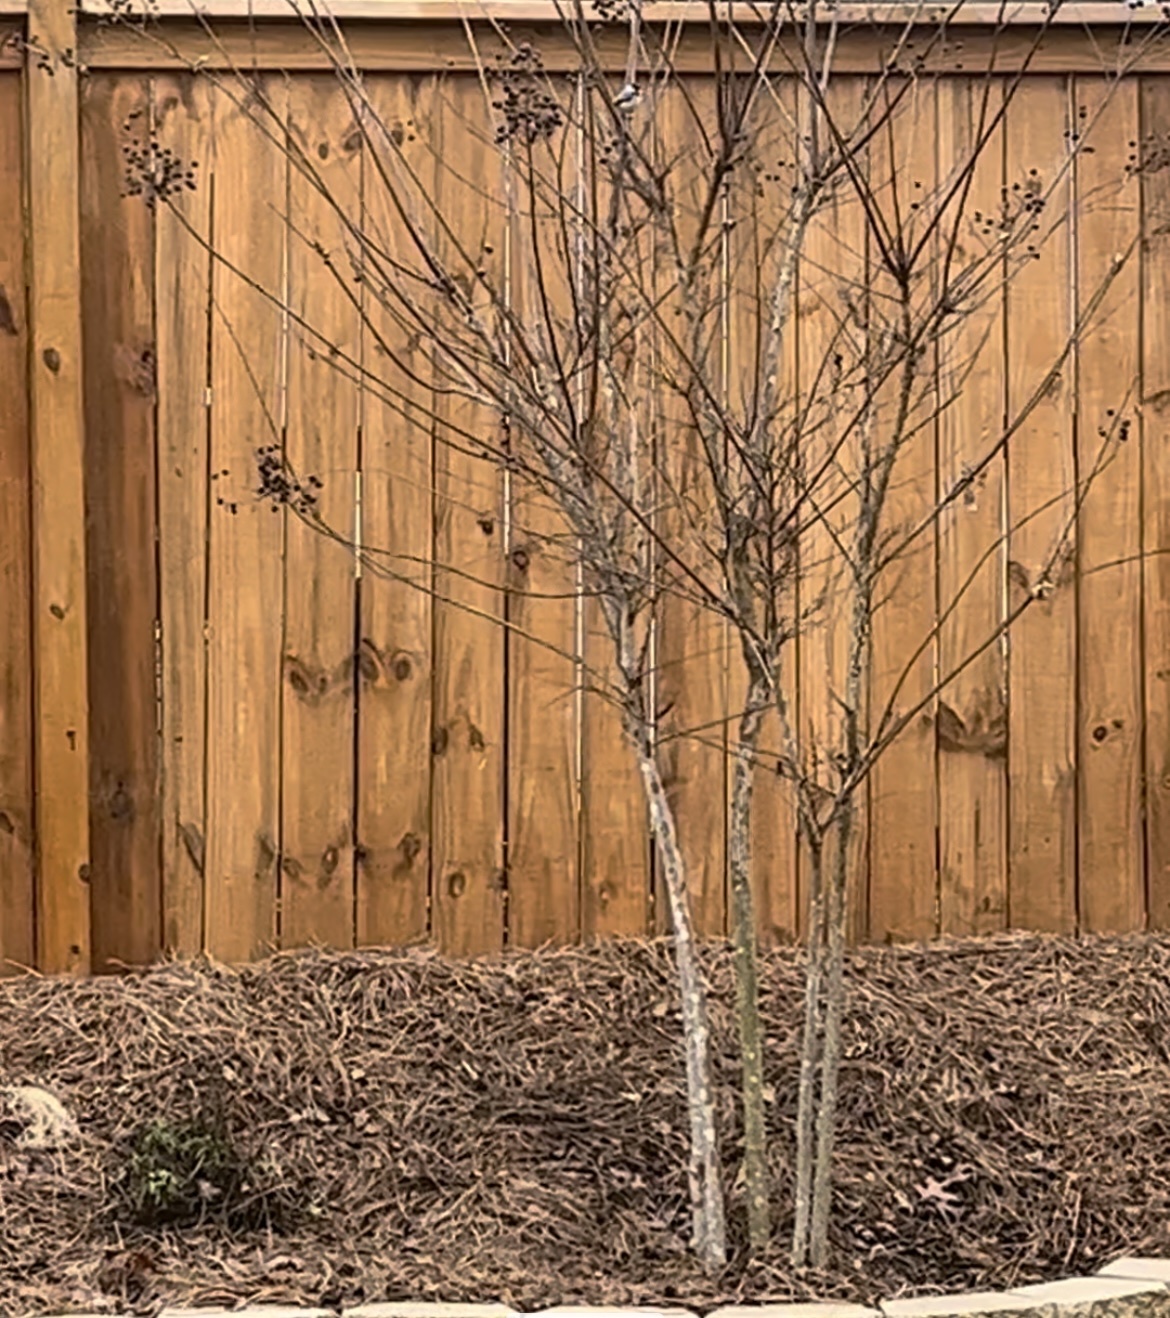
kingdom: Animalia
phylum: Chordata
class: Aves
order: Passeriformes
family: Paridae
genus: Poecile
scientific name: Poecile carolinensis
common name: Carolina chickadee
